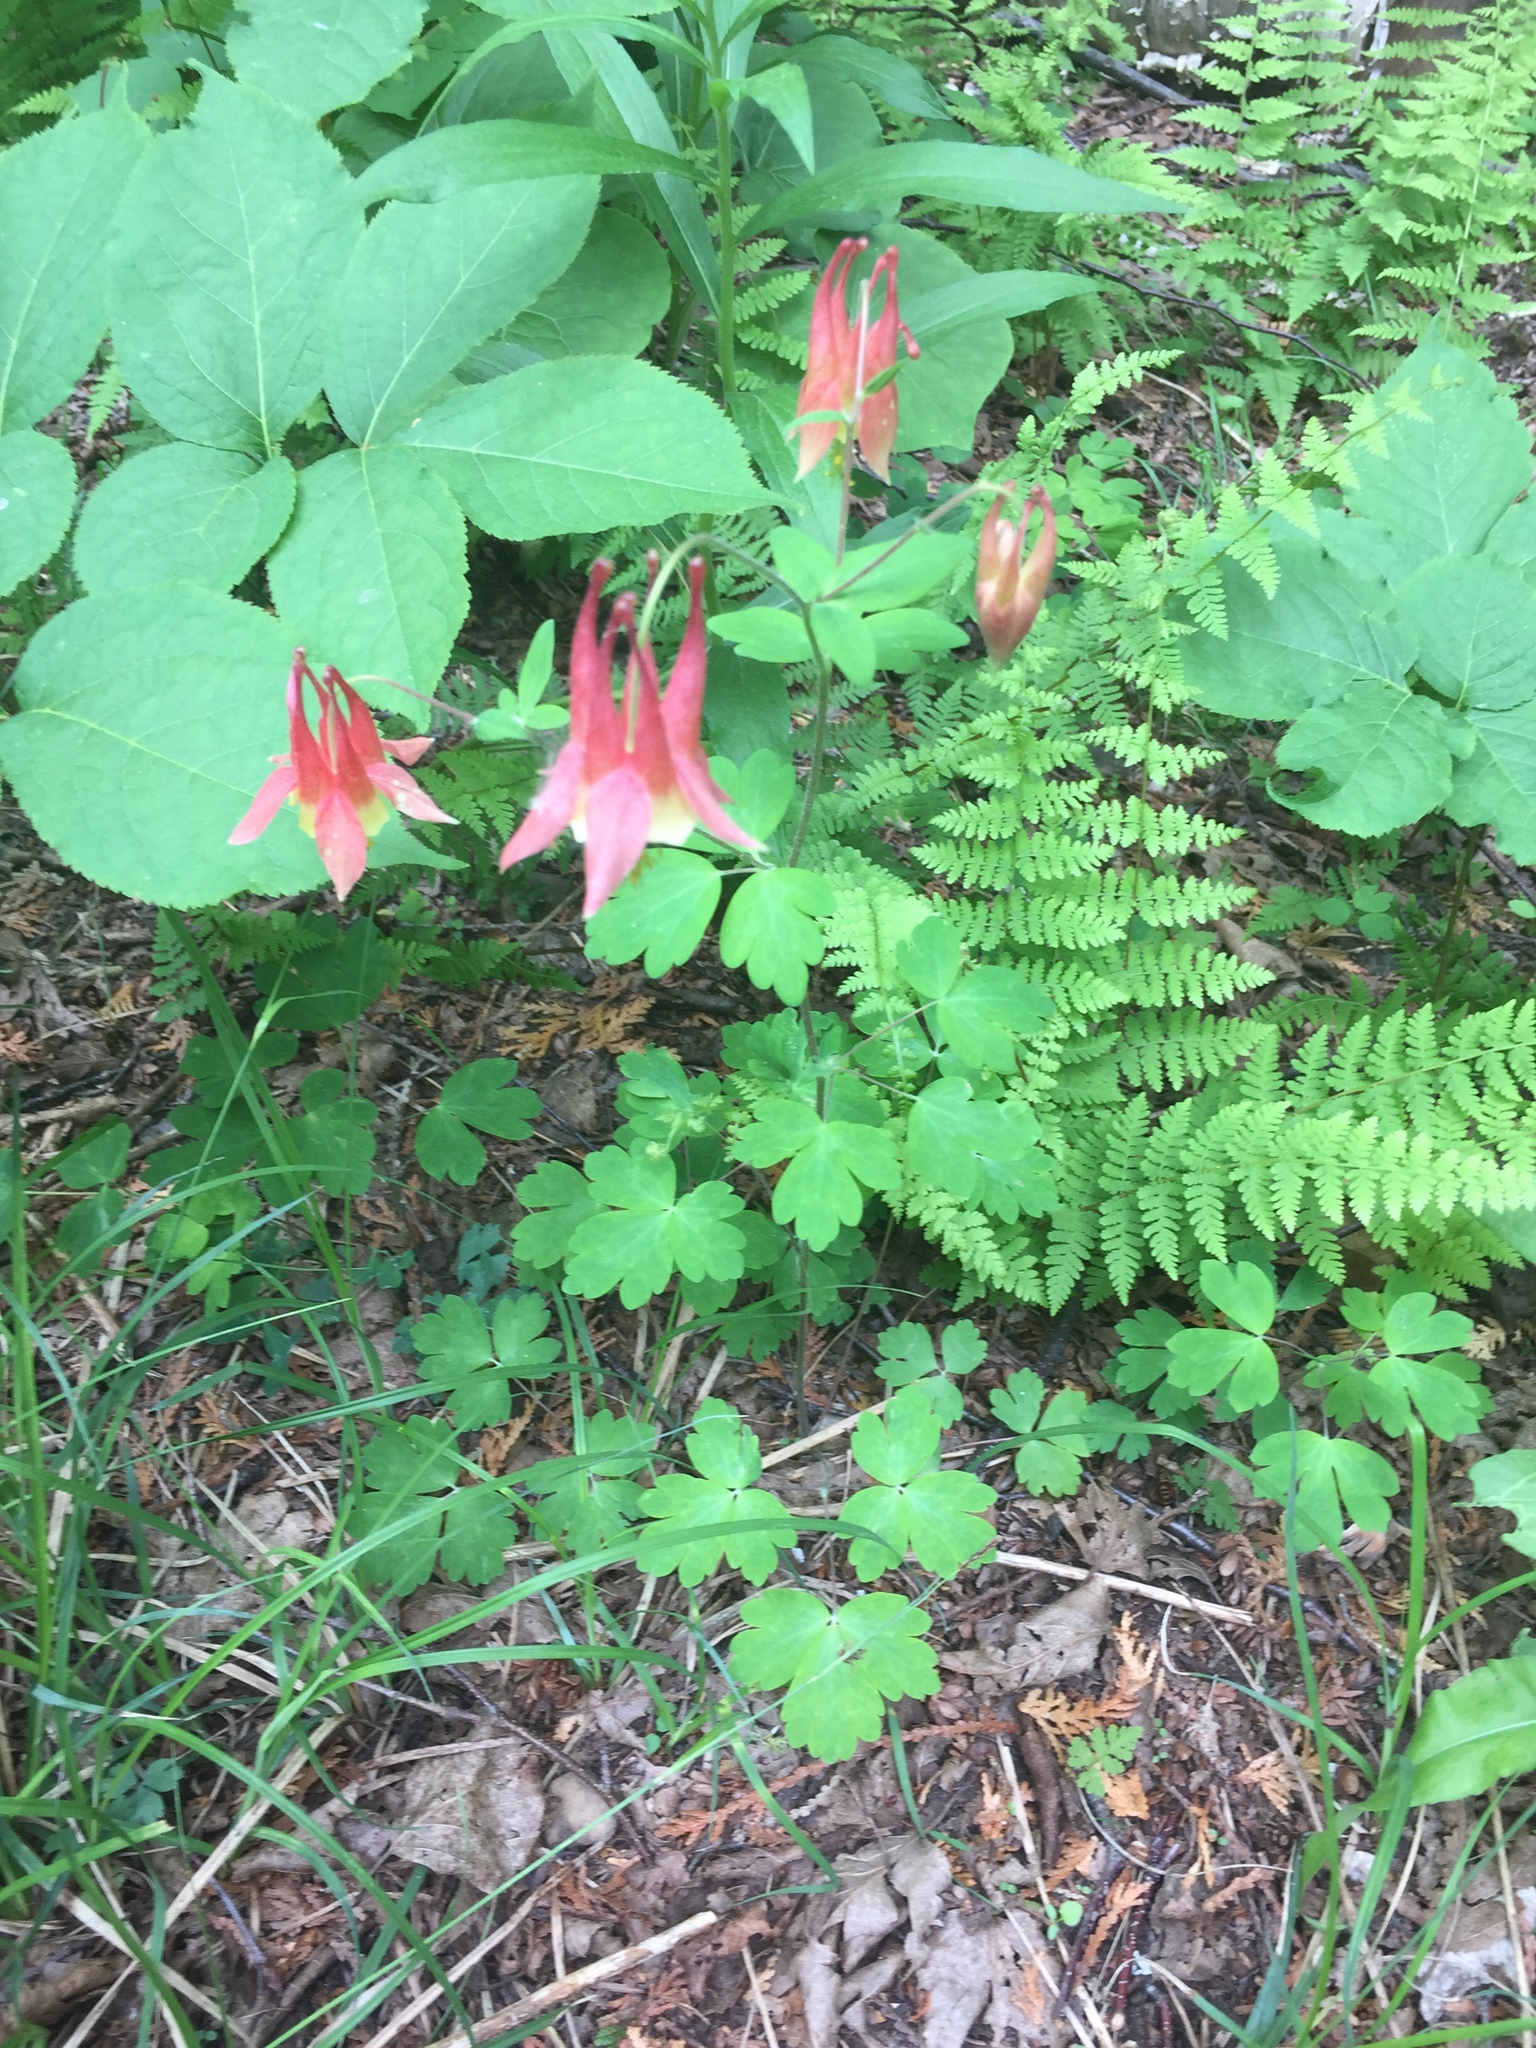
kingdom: Plantae
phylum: Tracheophyta
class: Magnoliopsida
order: Ranunculales
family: Ranunculaceae
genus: Aquilegia
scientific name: Aquilegia canadensis
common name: American columbine
